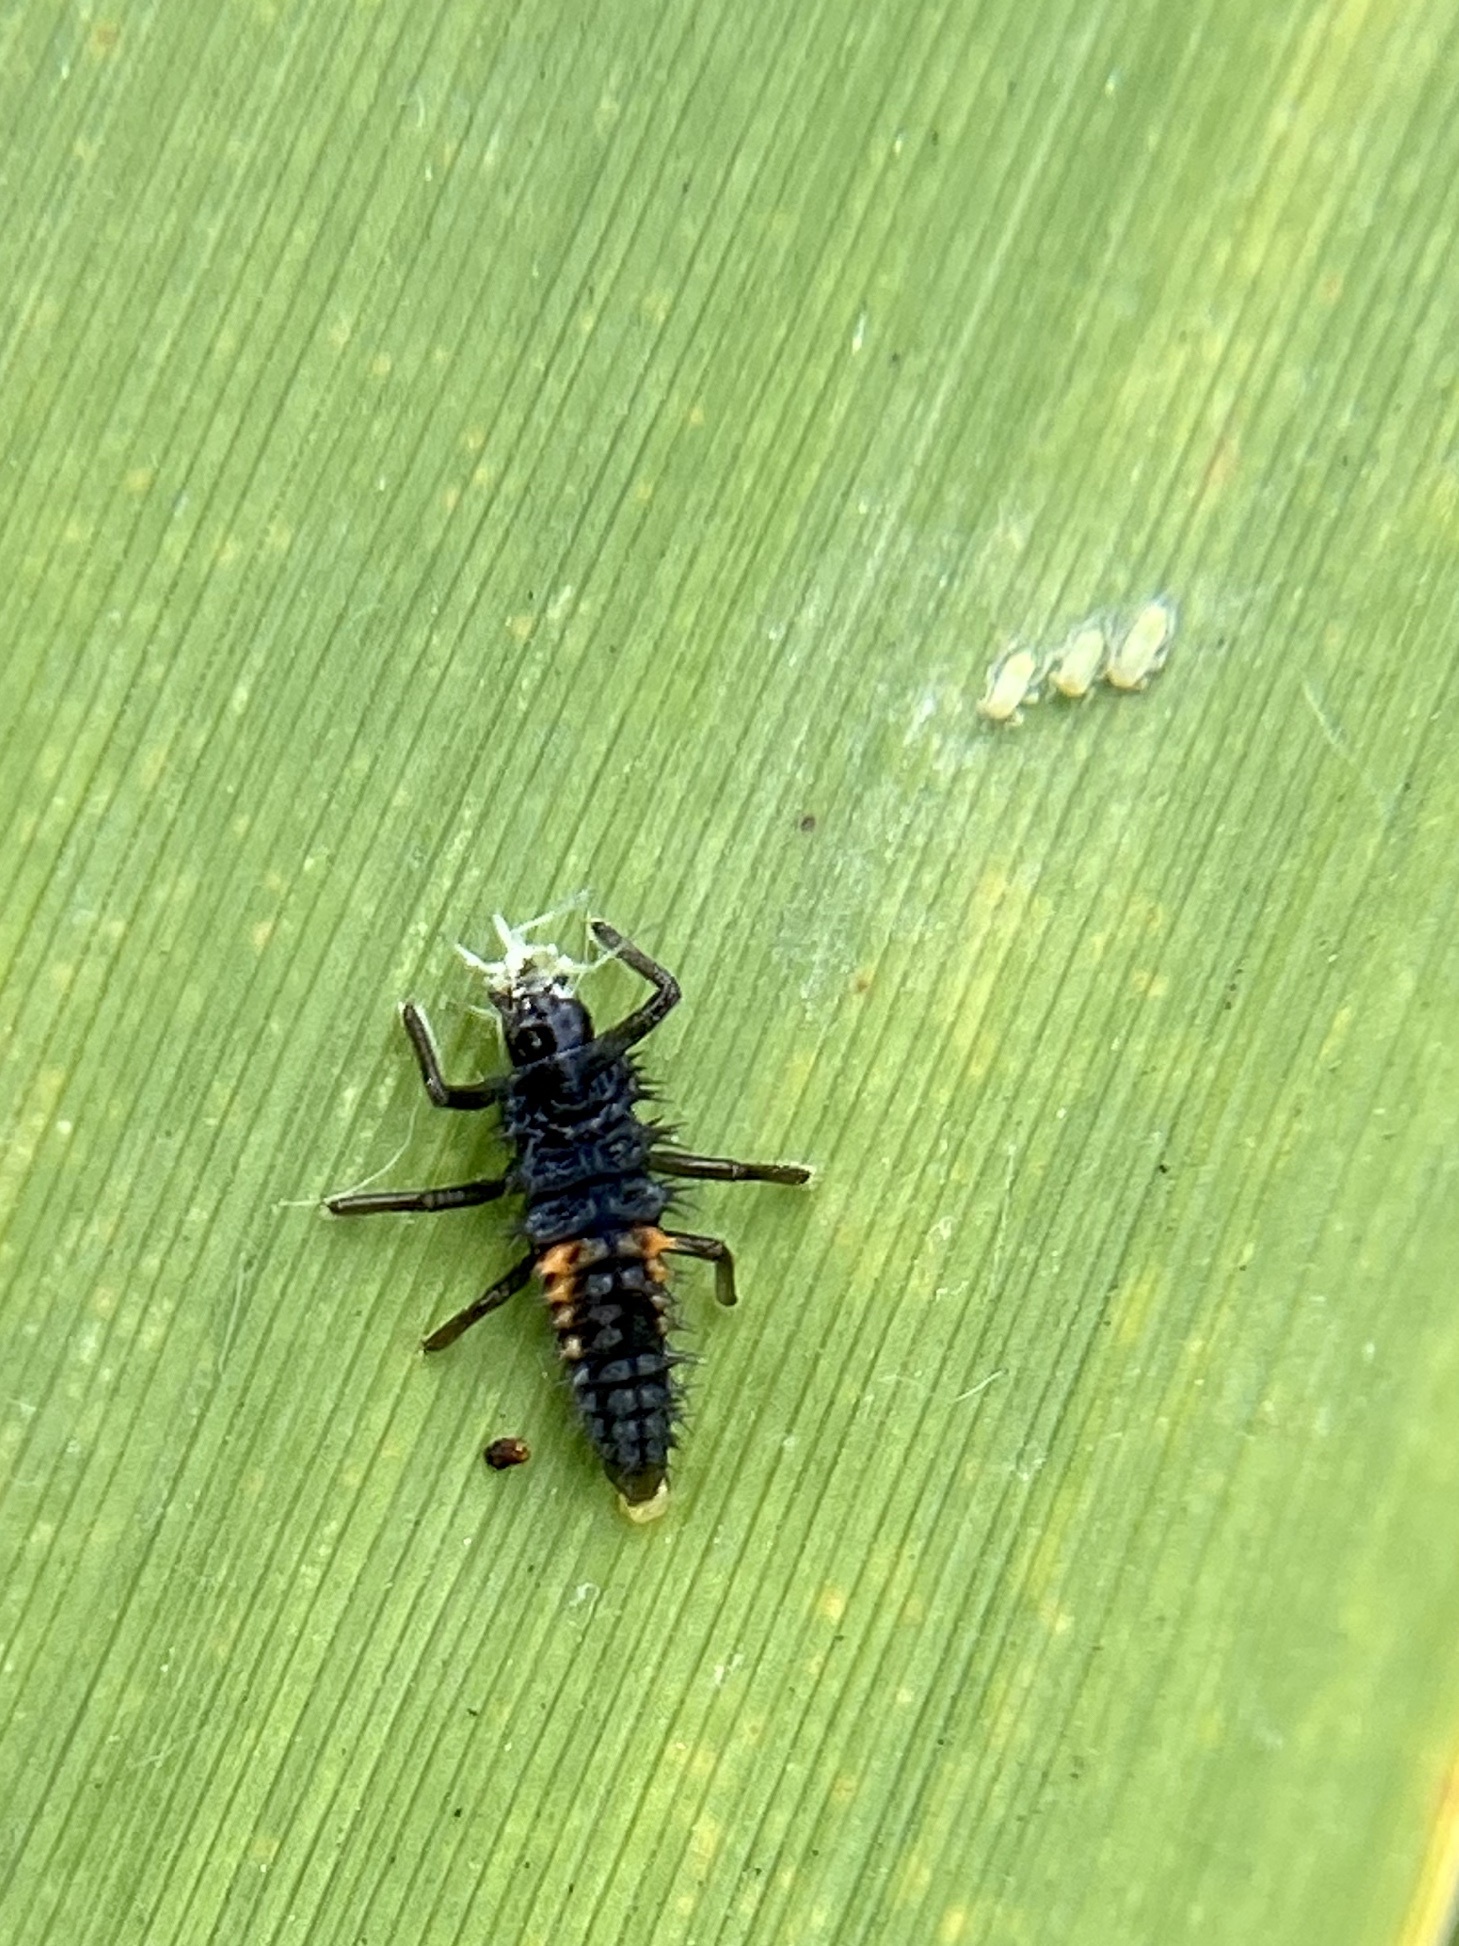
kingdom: Animalia
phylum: Arthropoda
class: Insecta
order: Coleoptera
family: Coccinellidae
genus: Harmonia
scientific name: Harmonia axyridis
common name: Harlequin ladybird
